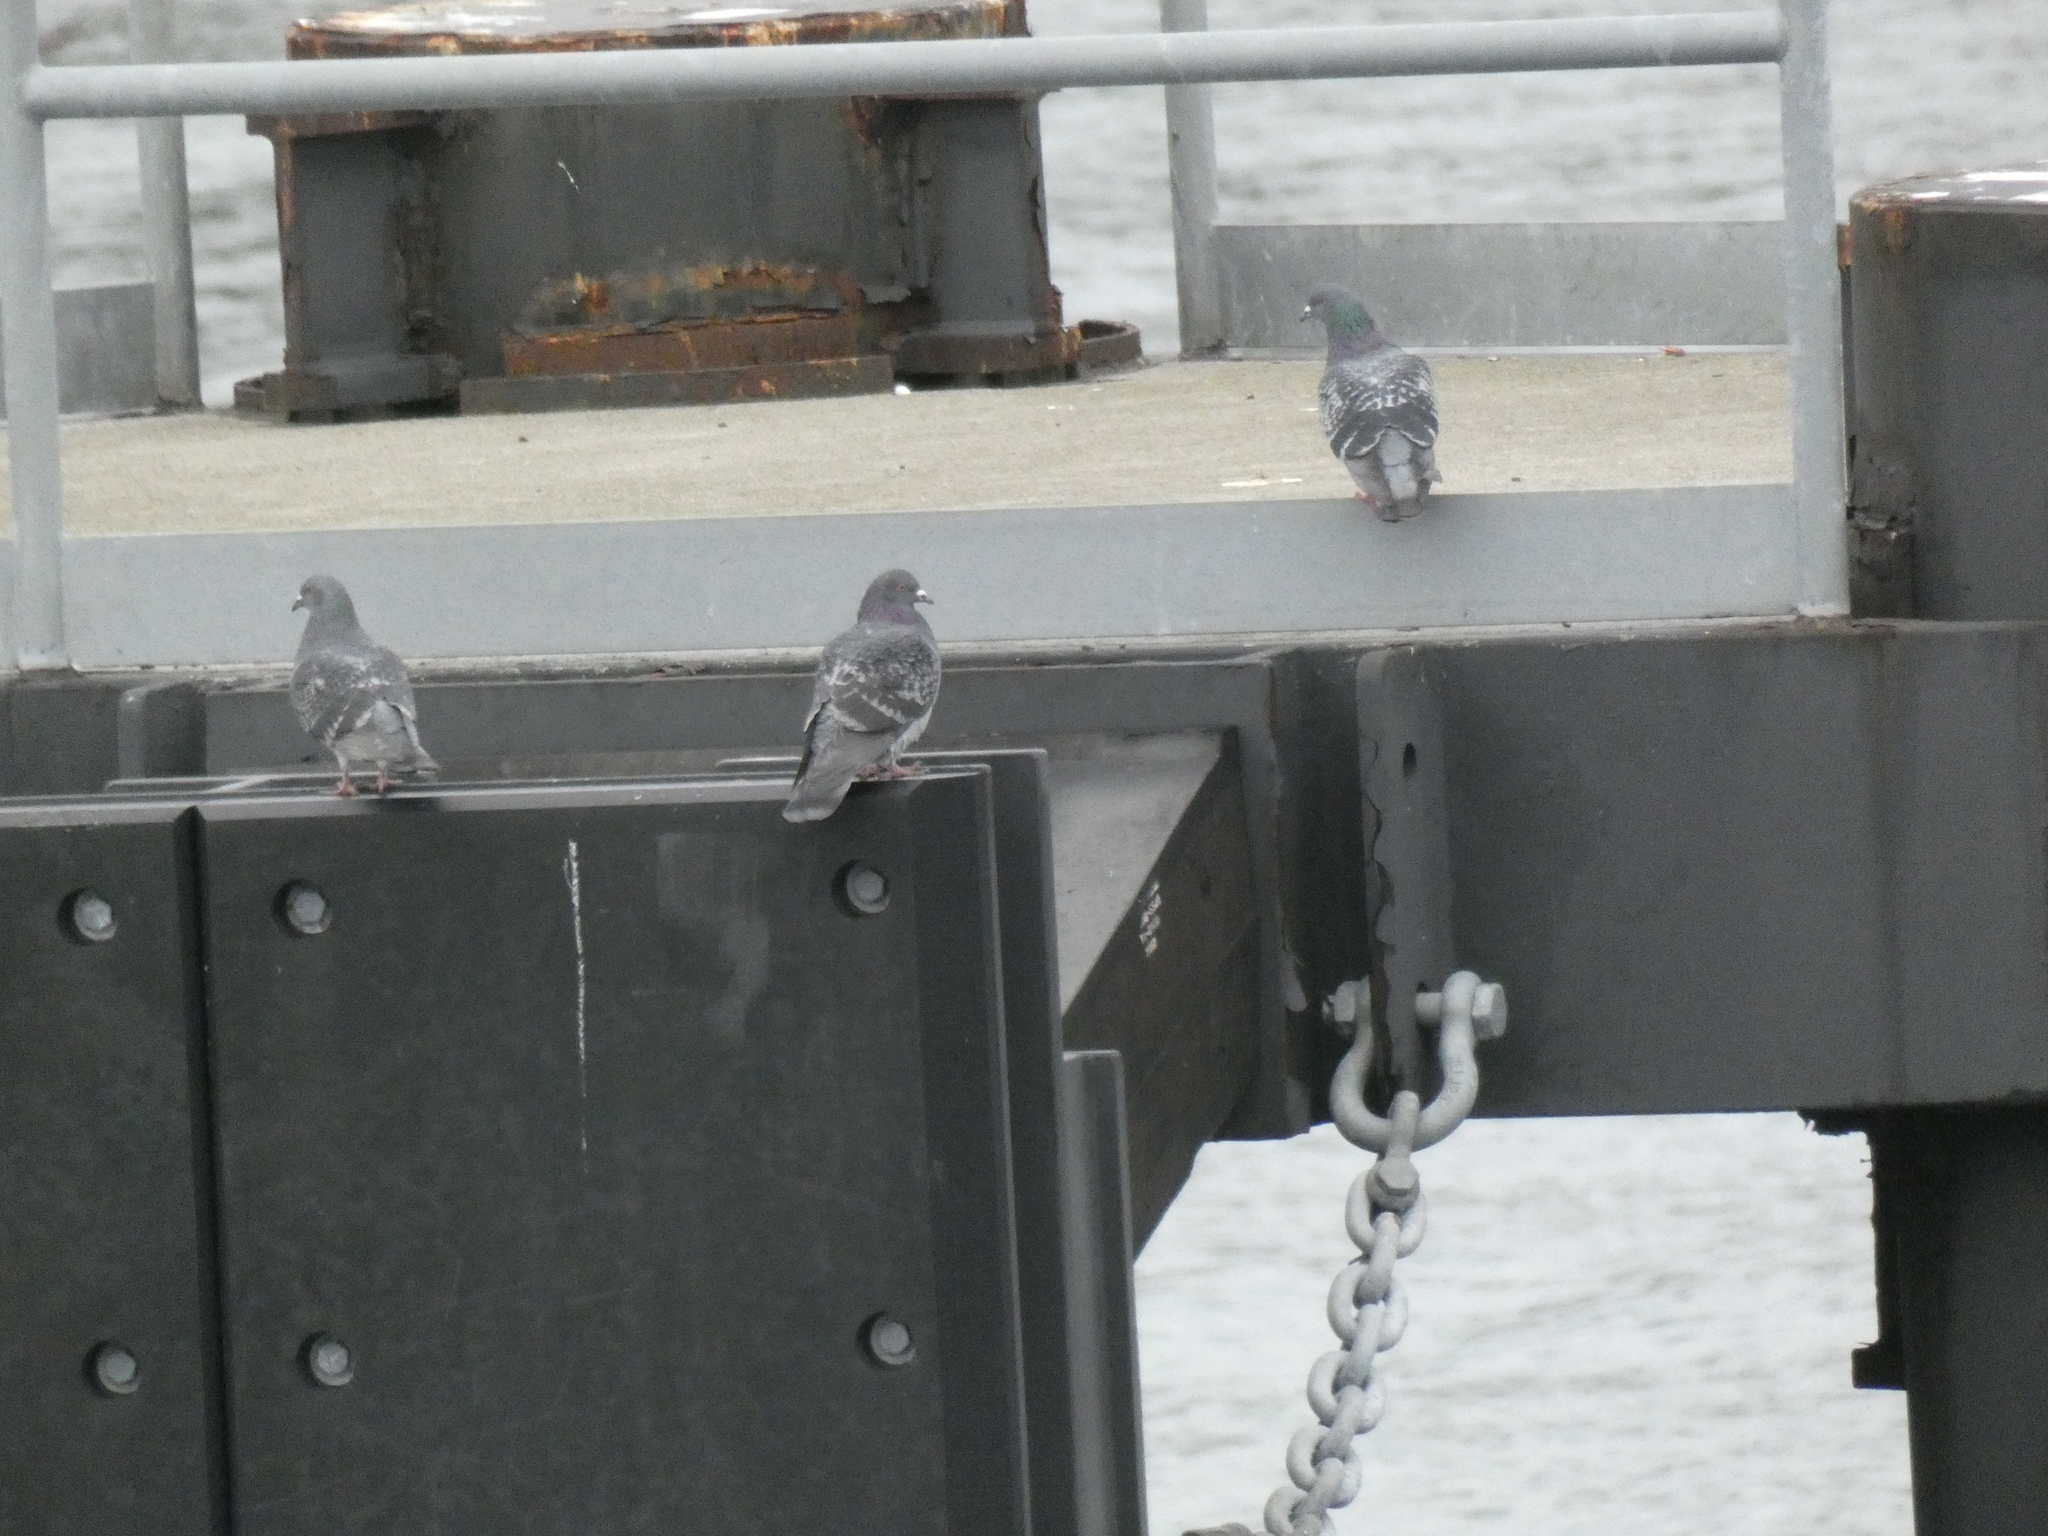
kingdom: Animalia
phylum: Chordata
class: Aves
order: Columbiformes
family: Columbidae
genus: Columba
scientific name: Columba livia
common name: Rock pigeon
